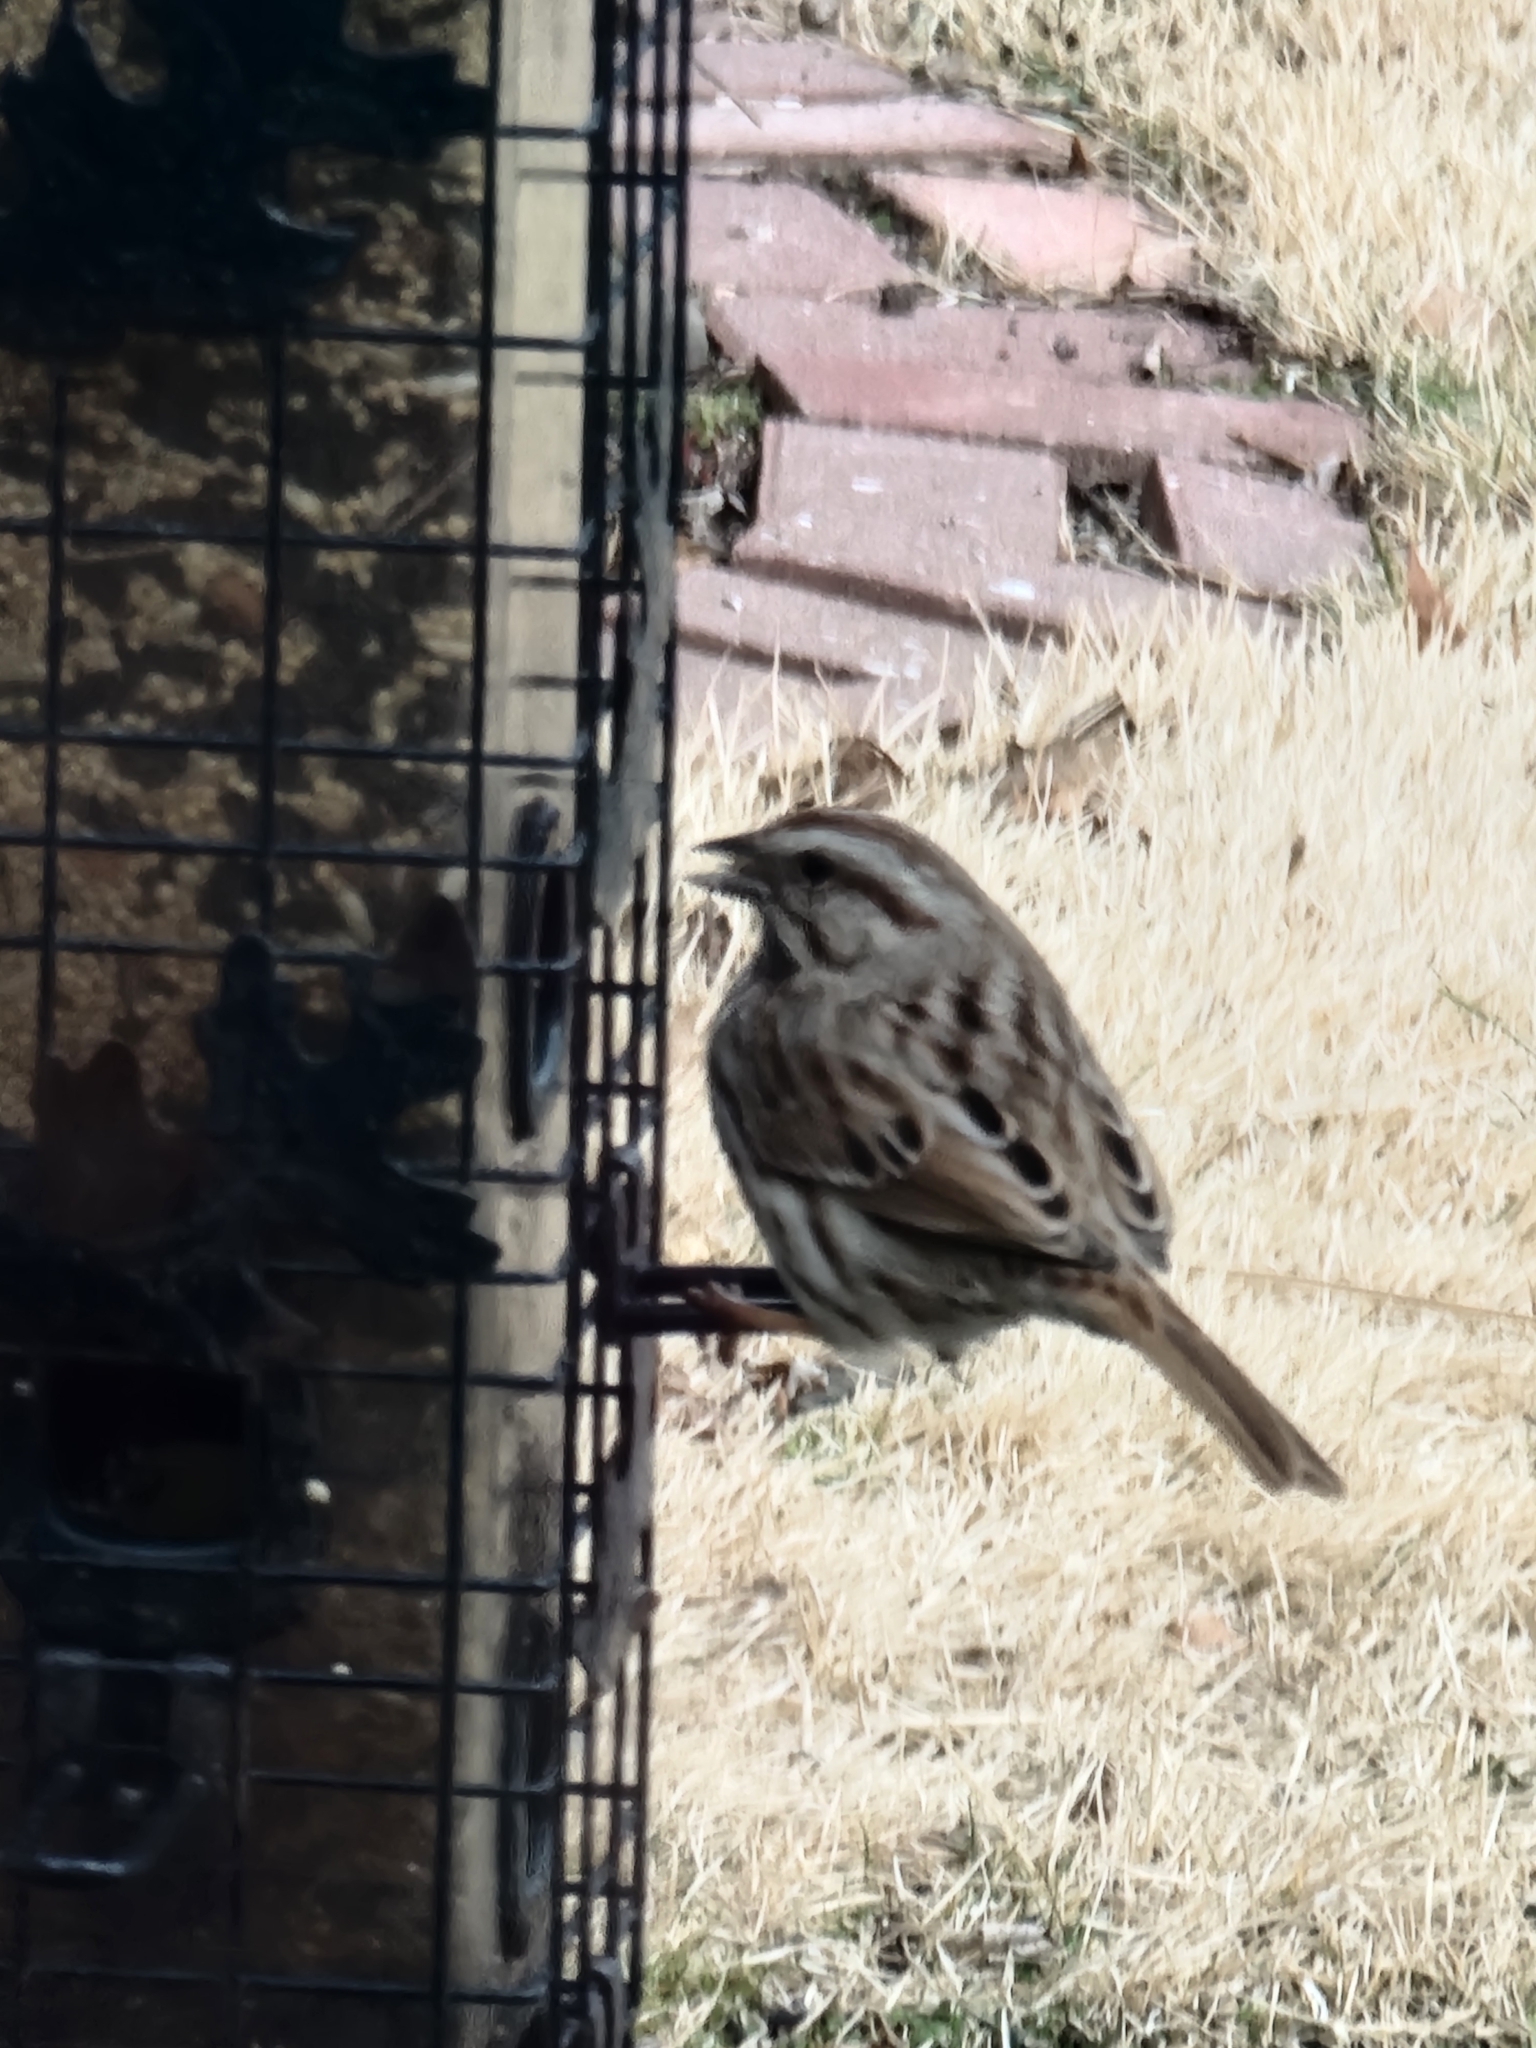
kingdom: Animalia
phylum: Chordata
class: Aves
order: Passeriformes
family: Passerellidae
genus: Melospiza
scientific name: Melospiza melodia
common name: Song sparrow
